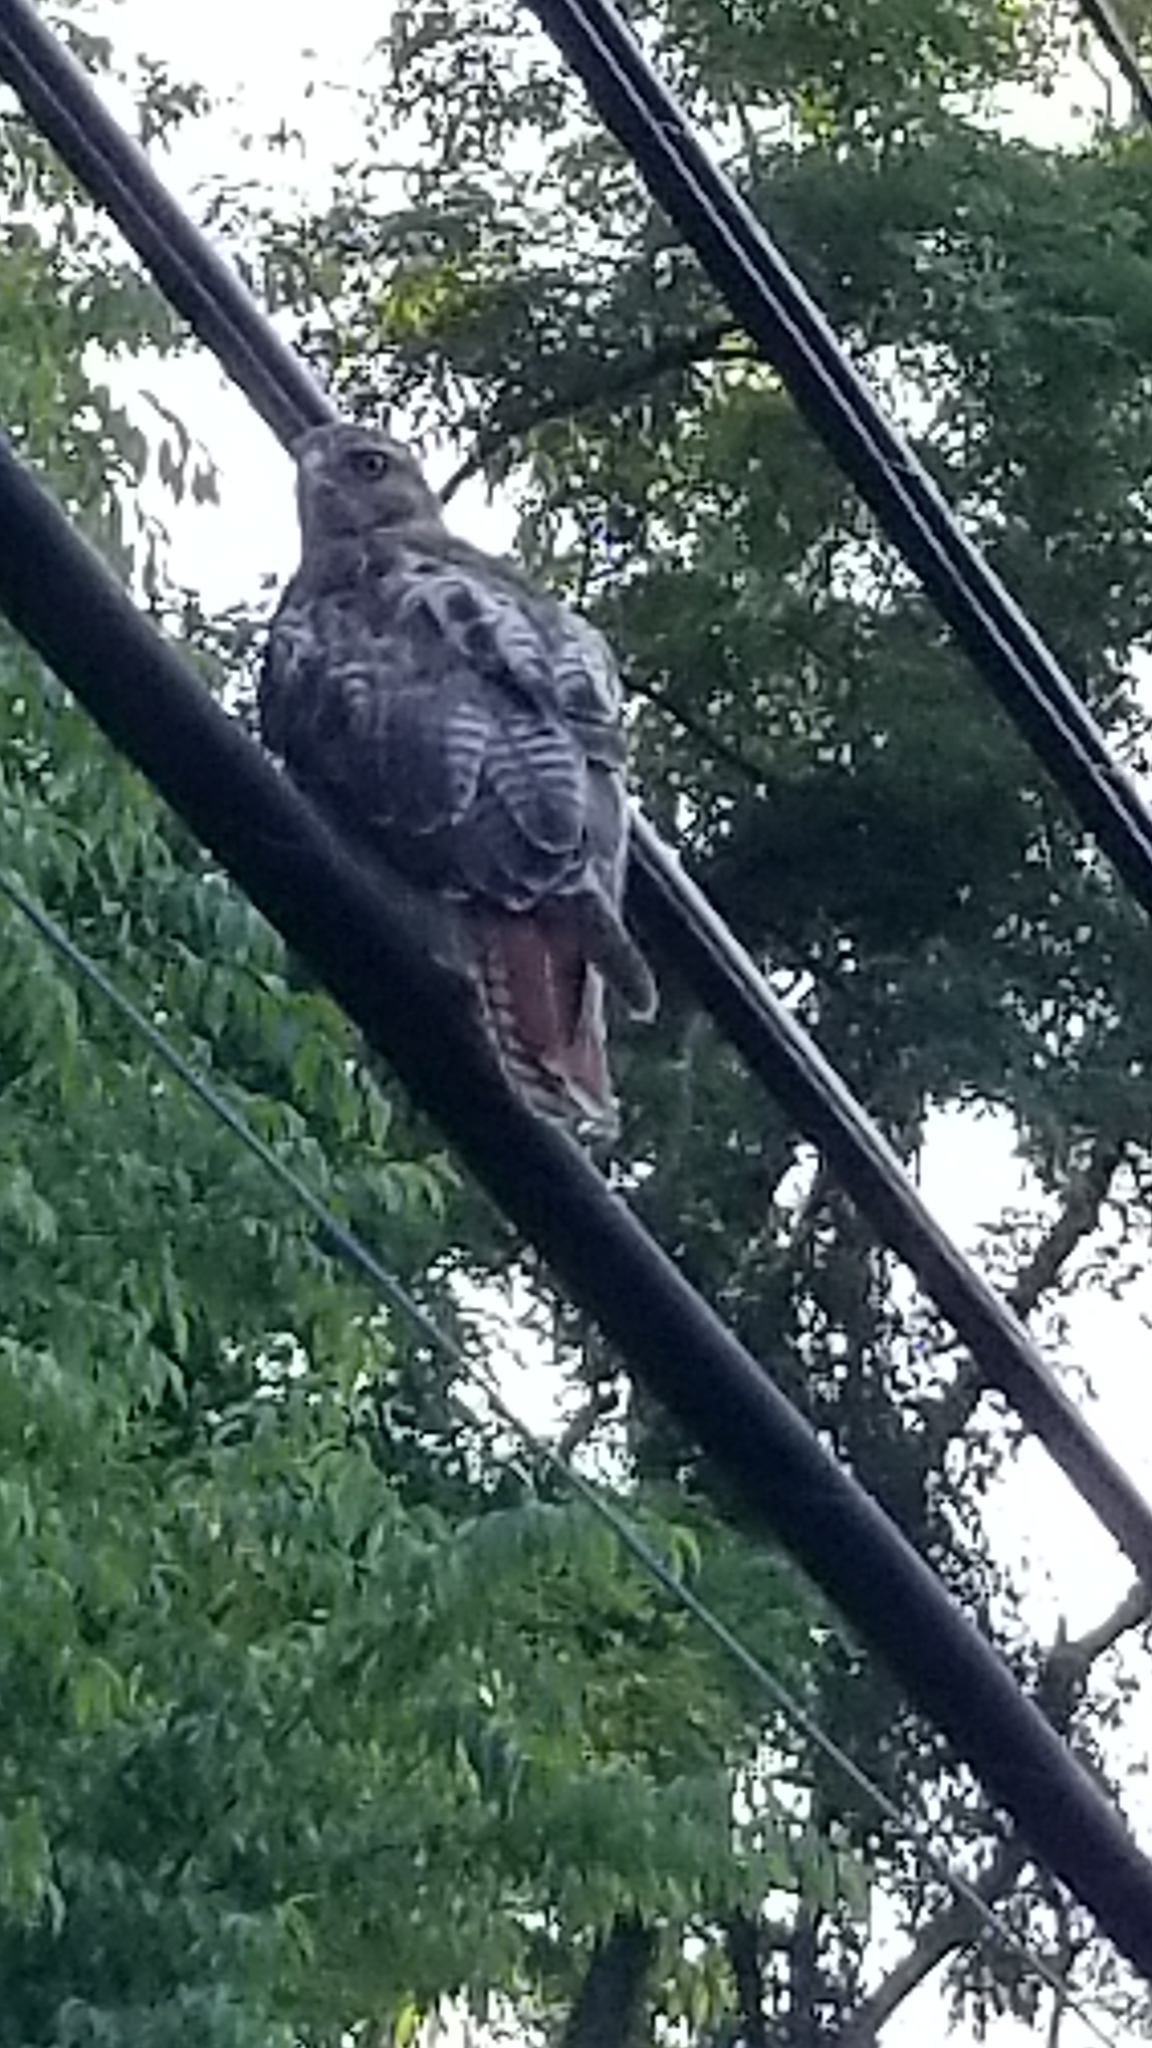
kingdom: Animalia
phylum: Chordata
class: Aves
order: Accipitriformes
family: Accipitridae
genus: Buteo
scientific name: Buteo jamaicensis
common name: Red-tailed hawk
